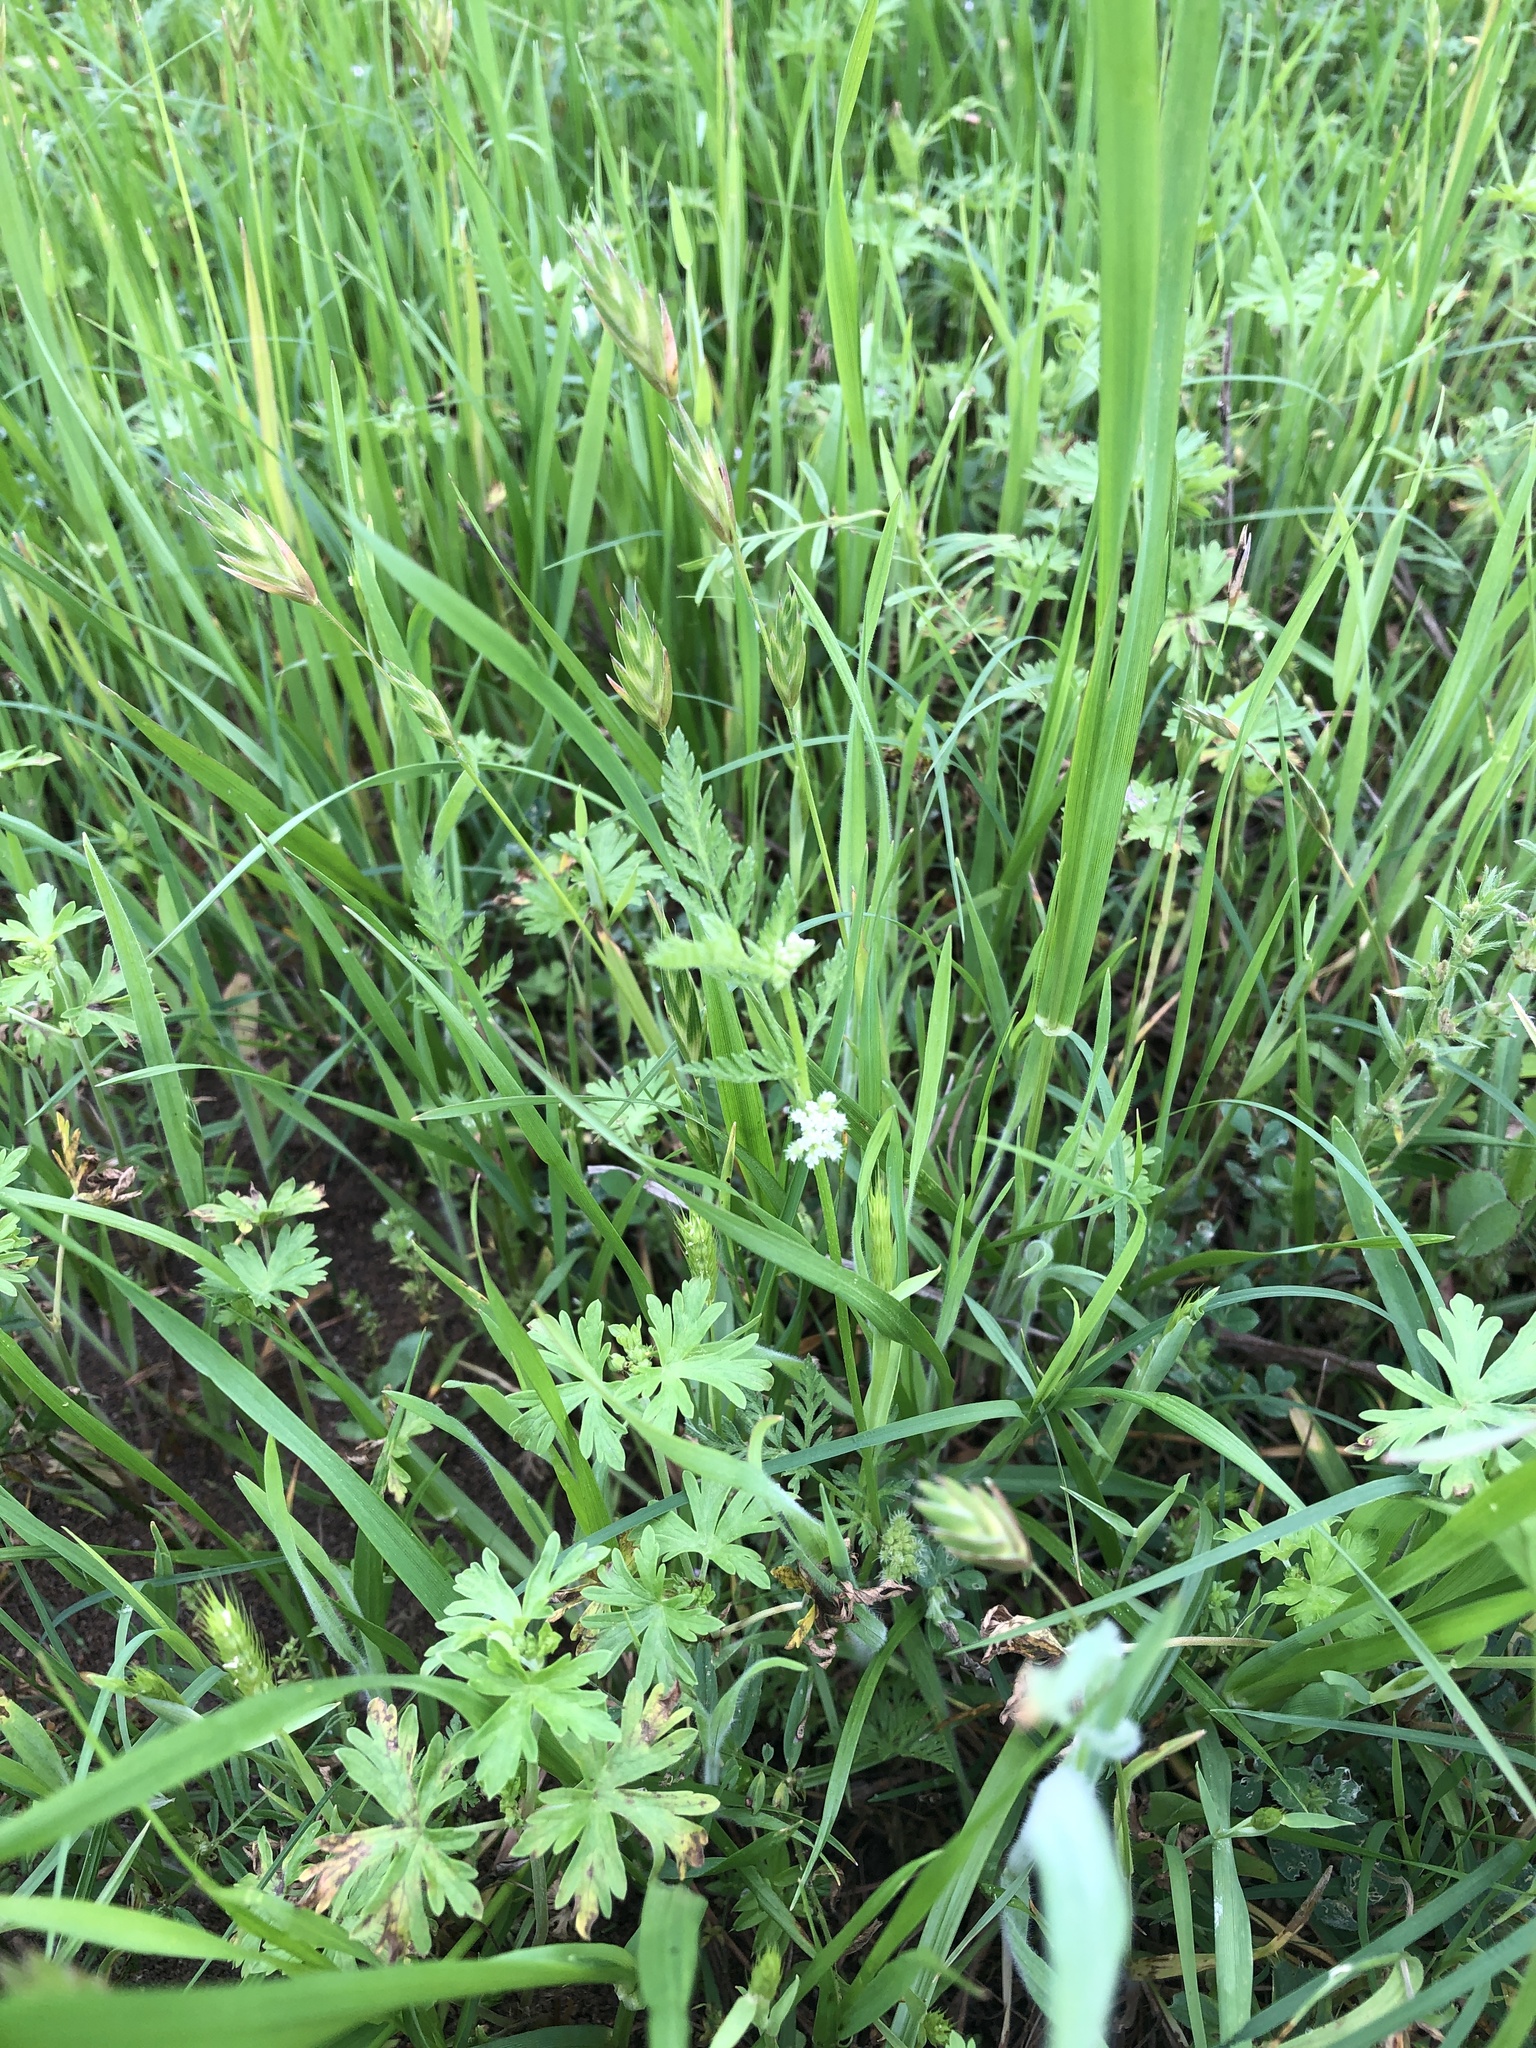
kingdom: Plantae
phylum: Tracheophyta
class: Magnoliopsida
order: Apiales
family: Apiaceae
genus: Torilis
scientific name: Torilis nodosa
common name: Knotted hedge-parsley
